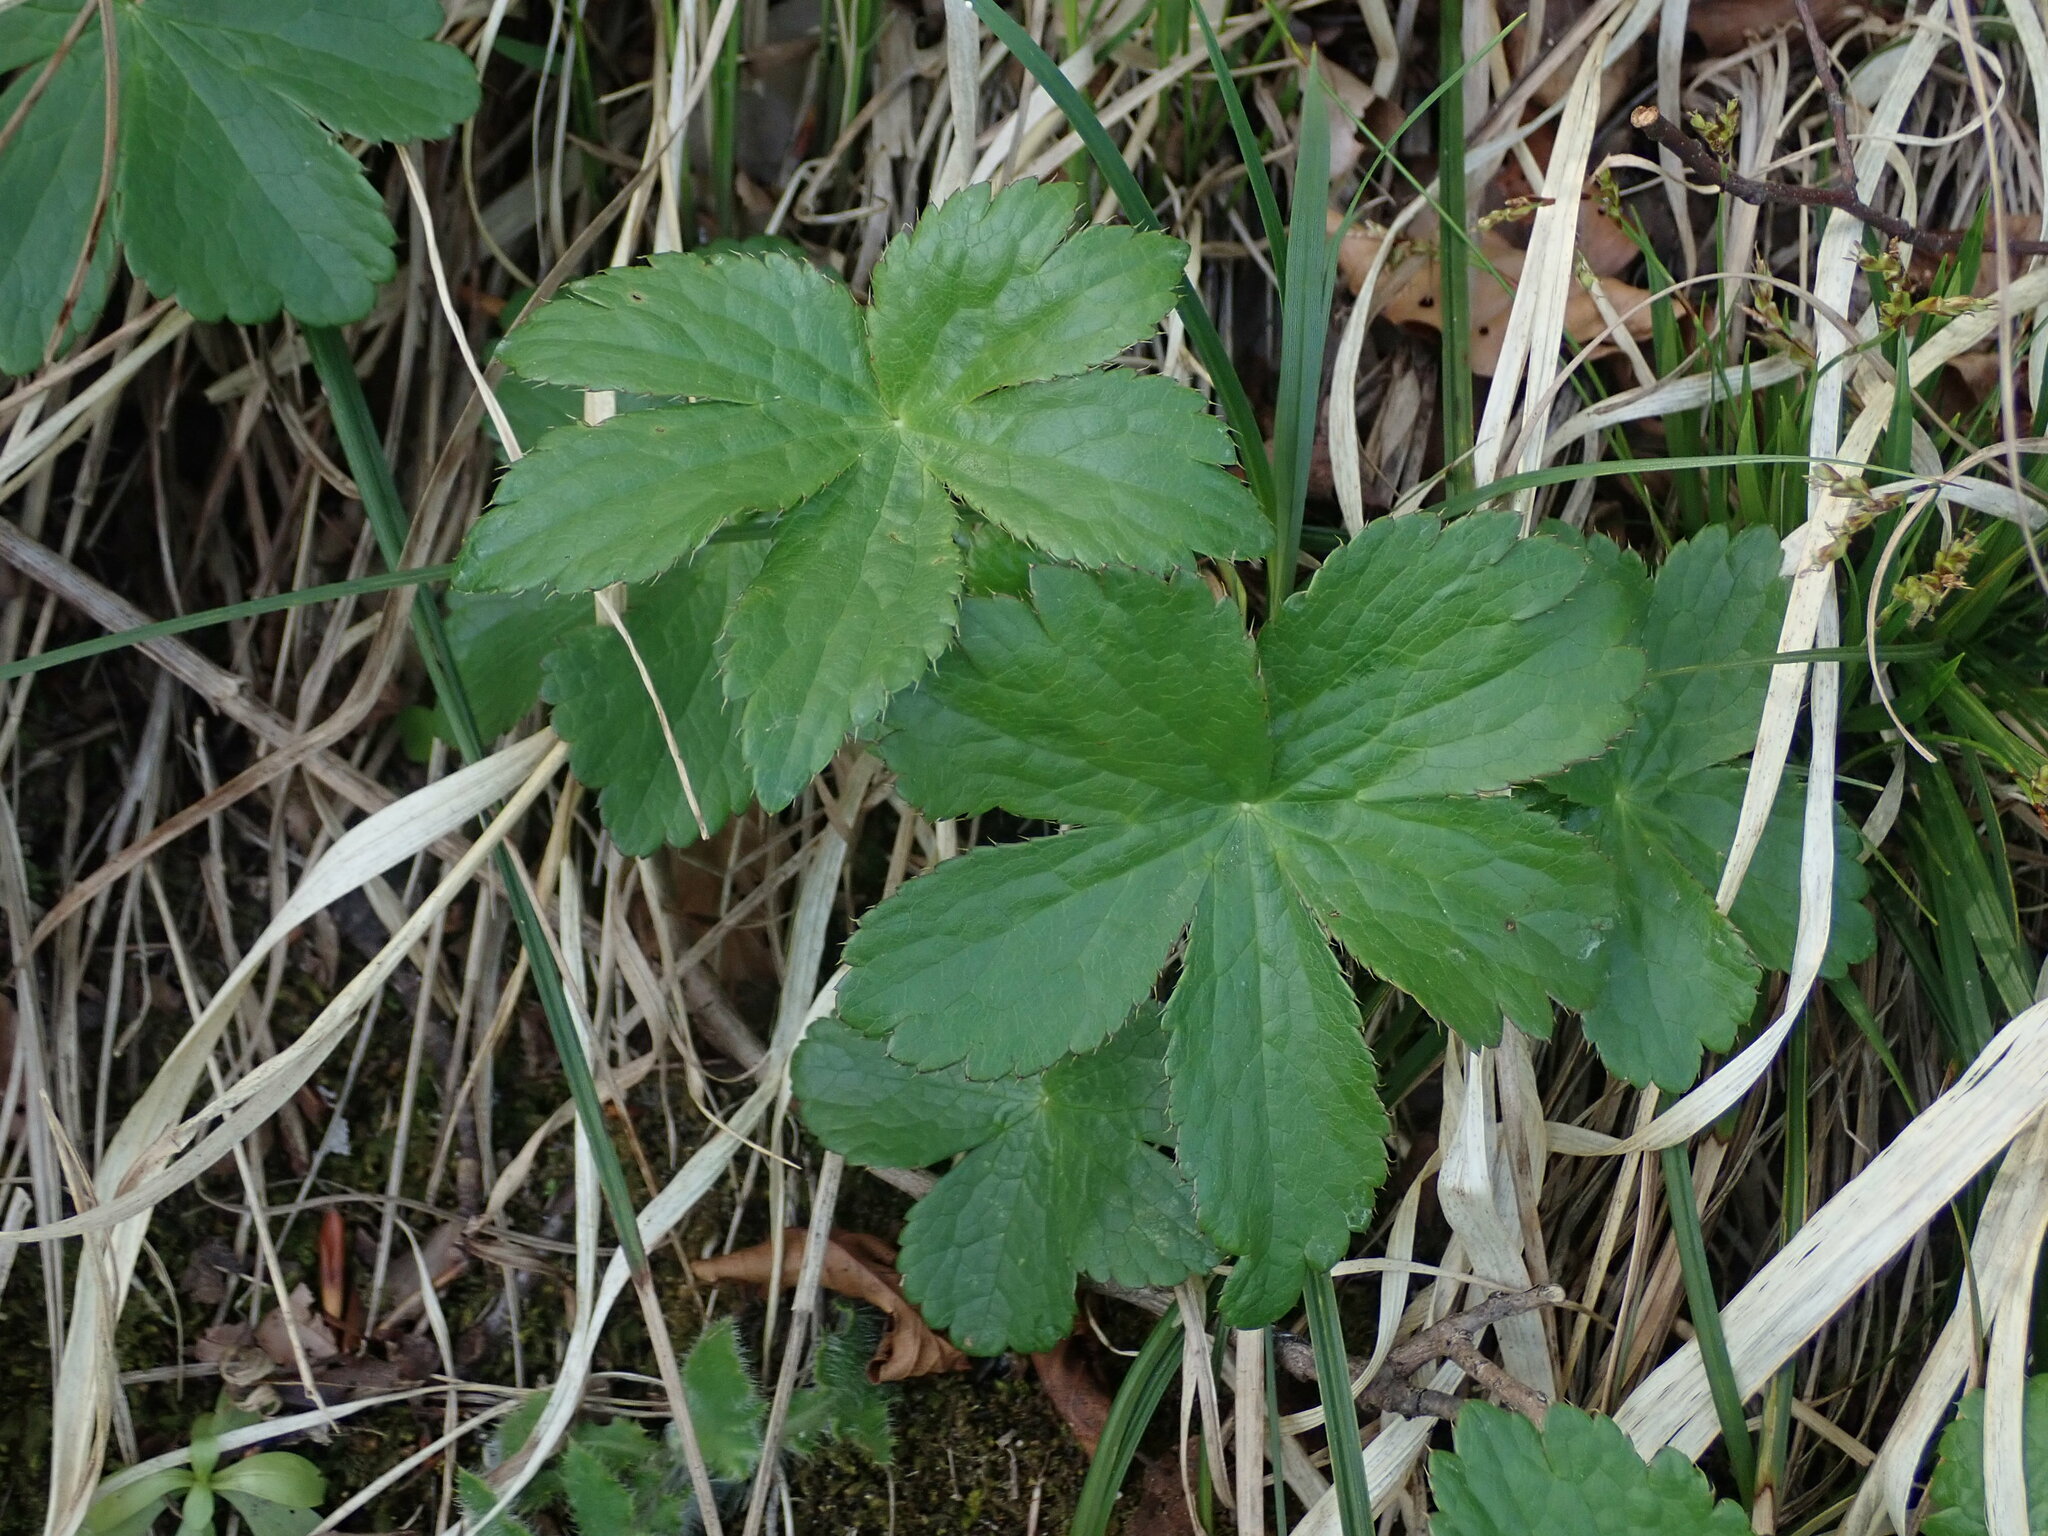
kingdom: Plantae
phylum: Tracheophyta
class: Magnoliopsida
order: Apiales
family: Apiaceae
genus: Astrantia
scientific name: Astrantia major
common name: Greater masterwort
